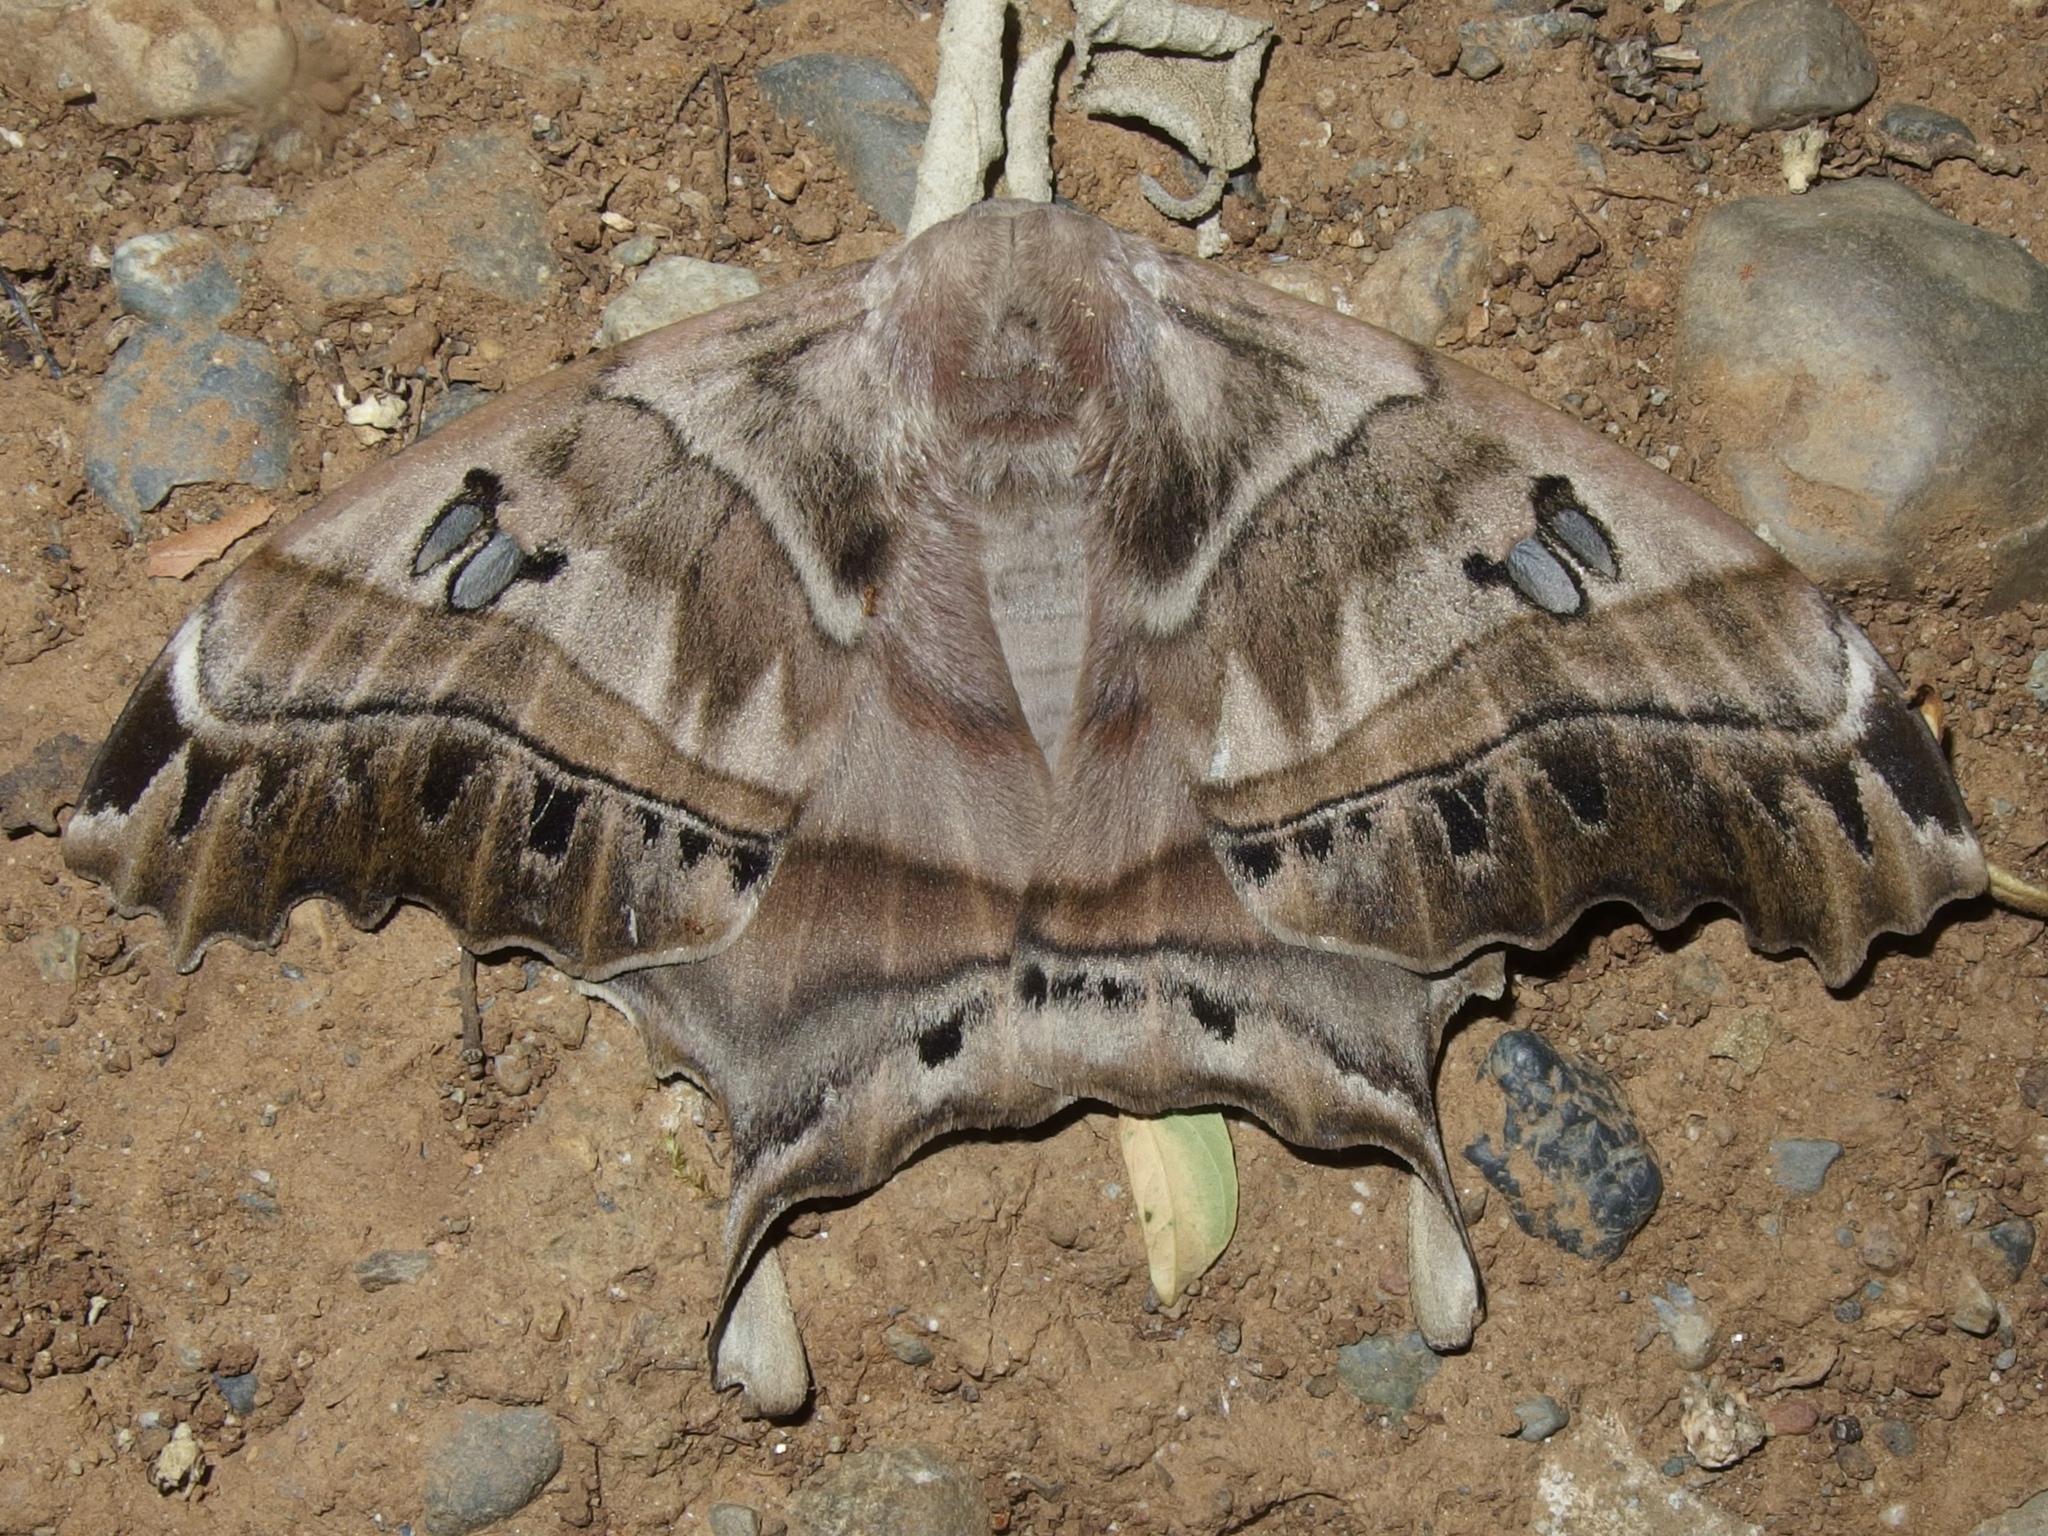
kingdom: Animalia
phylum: Arthropoda
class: Insecta
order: Lepidoptera
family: Saturniidae
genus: Titaea
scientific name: Titaea tamerlan
